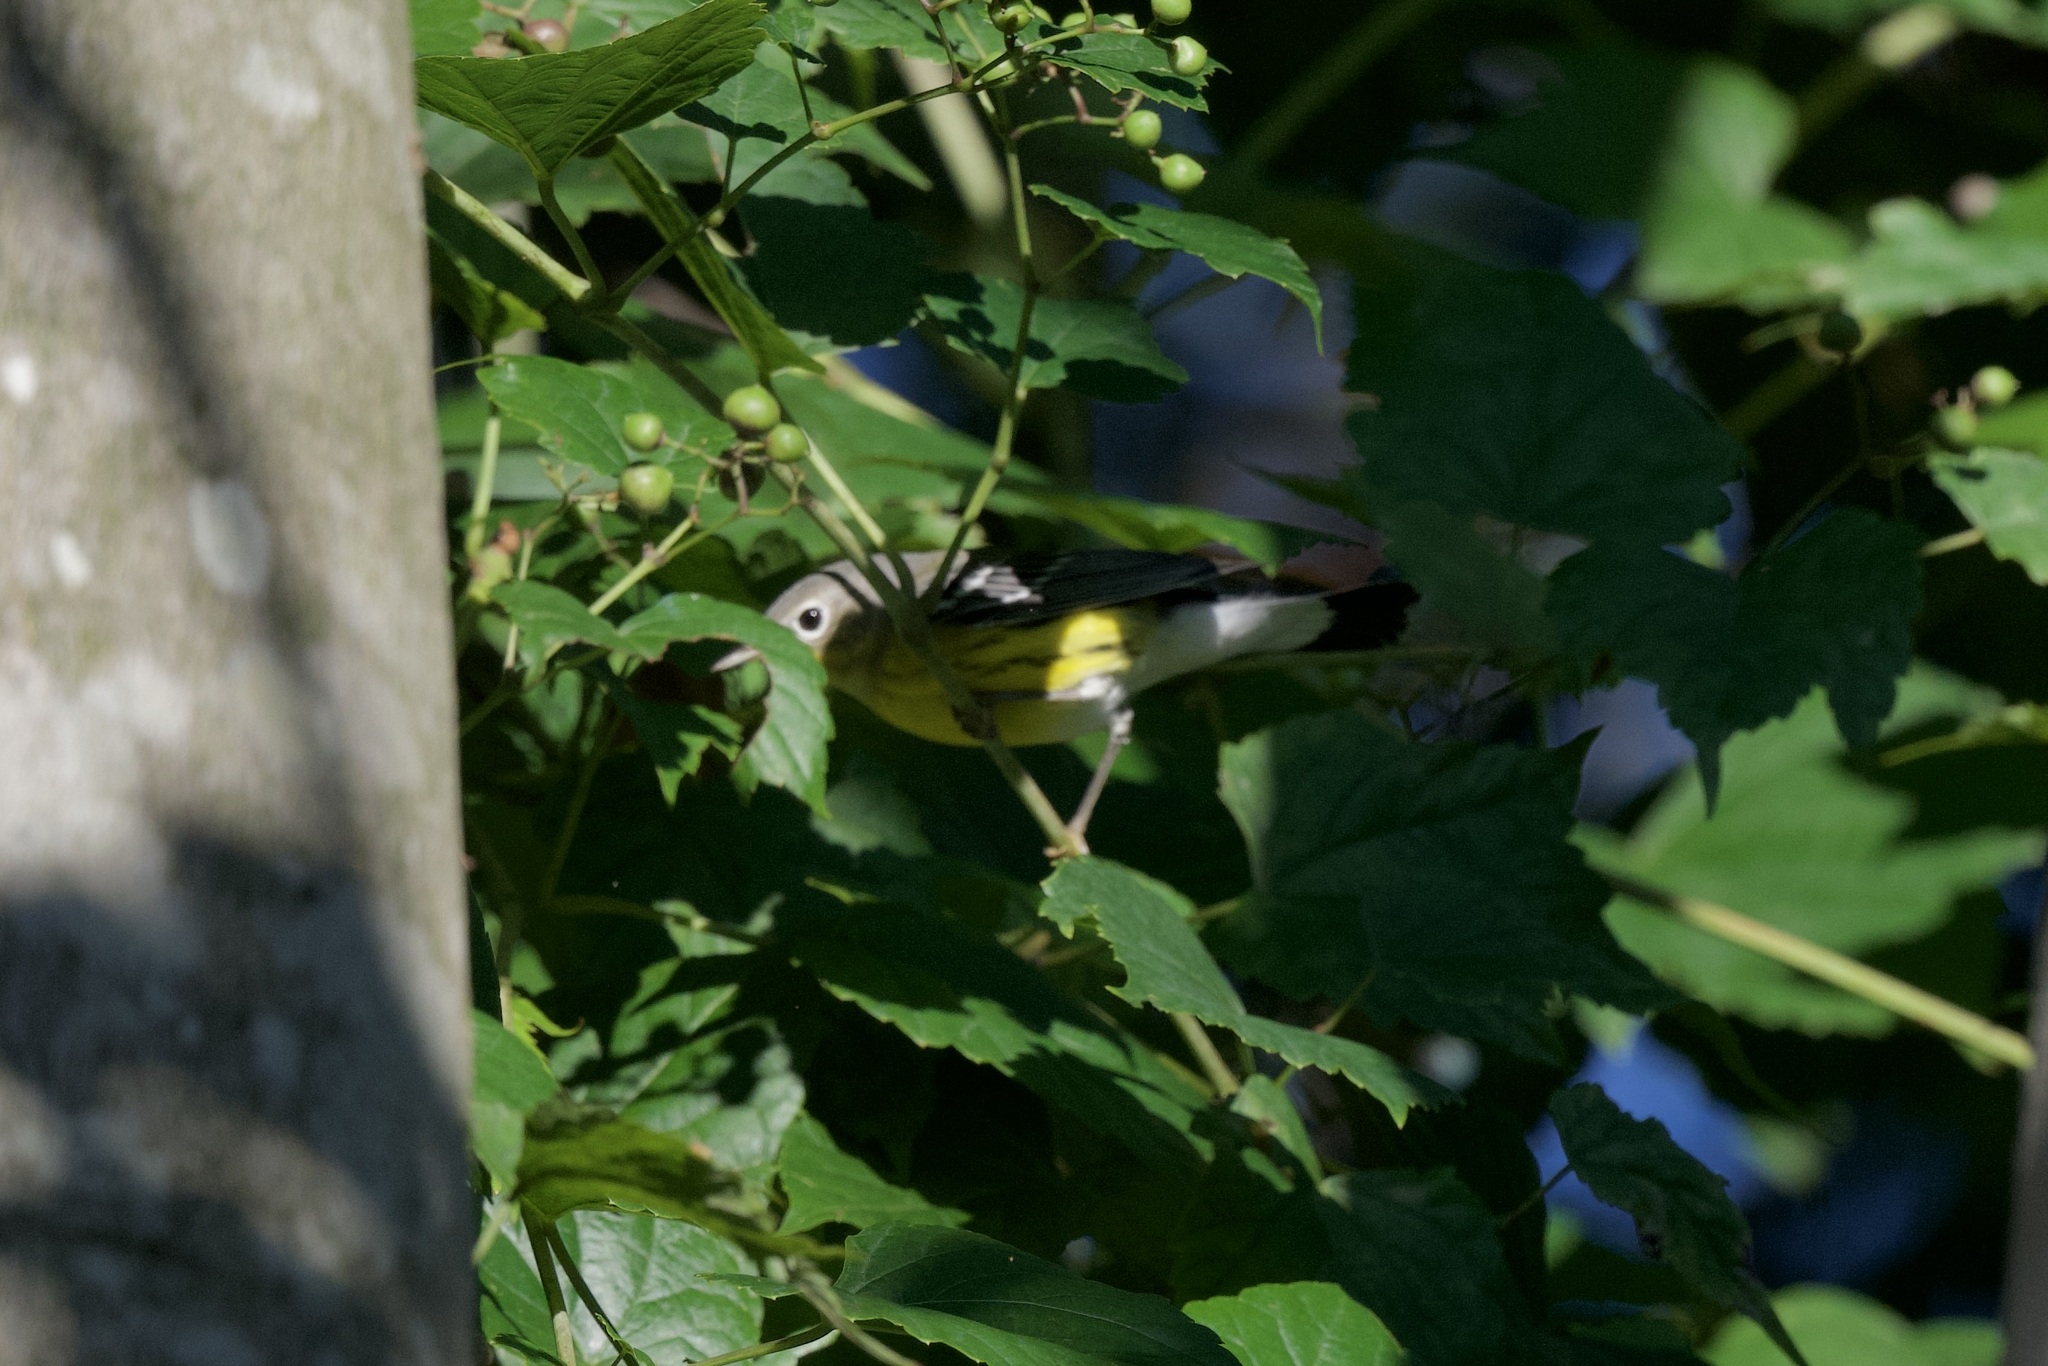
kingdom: Animalia
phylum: Chordata
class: Aves
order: Passeriformes
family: Parulidae
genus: Setophaga
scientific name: Setophaga magnolia
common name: Magnolia warbler
